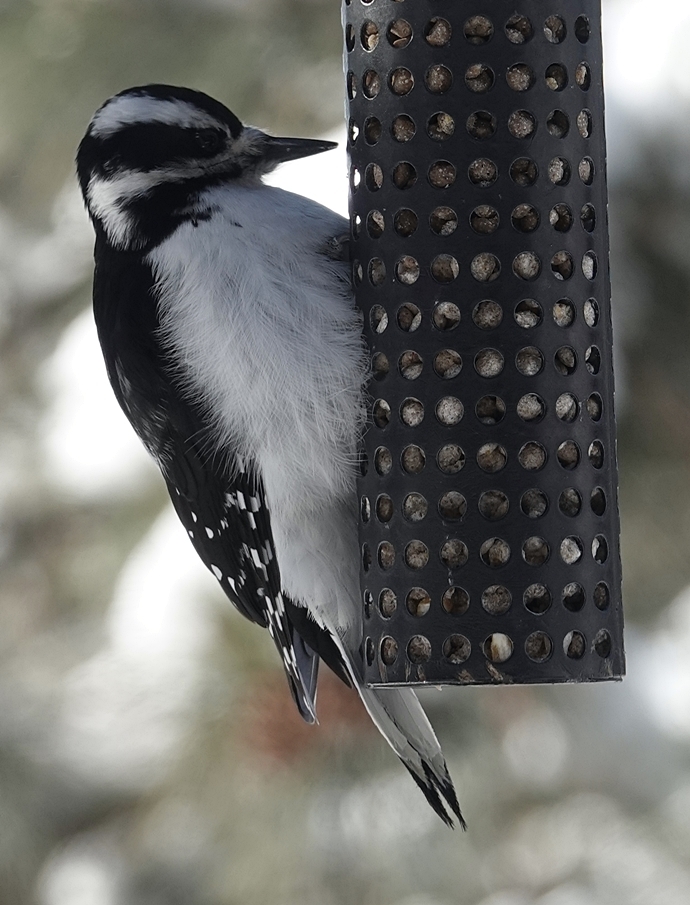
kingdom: Animalia
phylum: Chordata
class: Aves
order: Piciformes
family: Picidae
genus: Leuconotopicus
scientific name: Leuconotopicus villosus
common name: Hairy woodpecker
